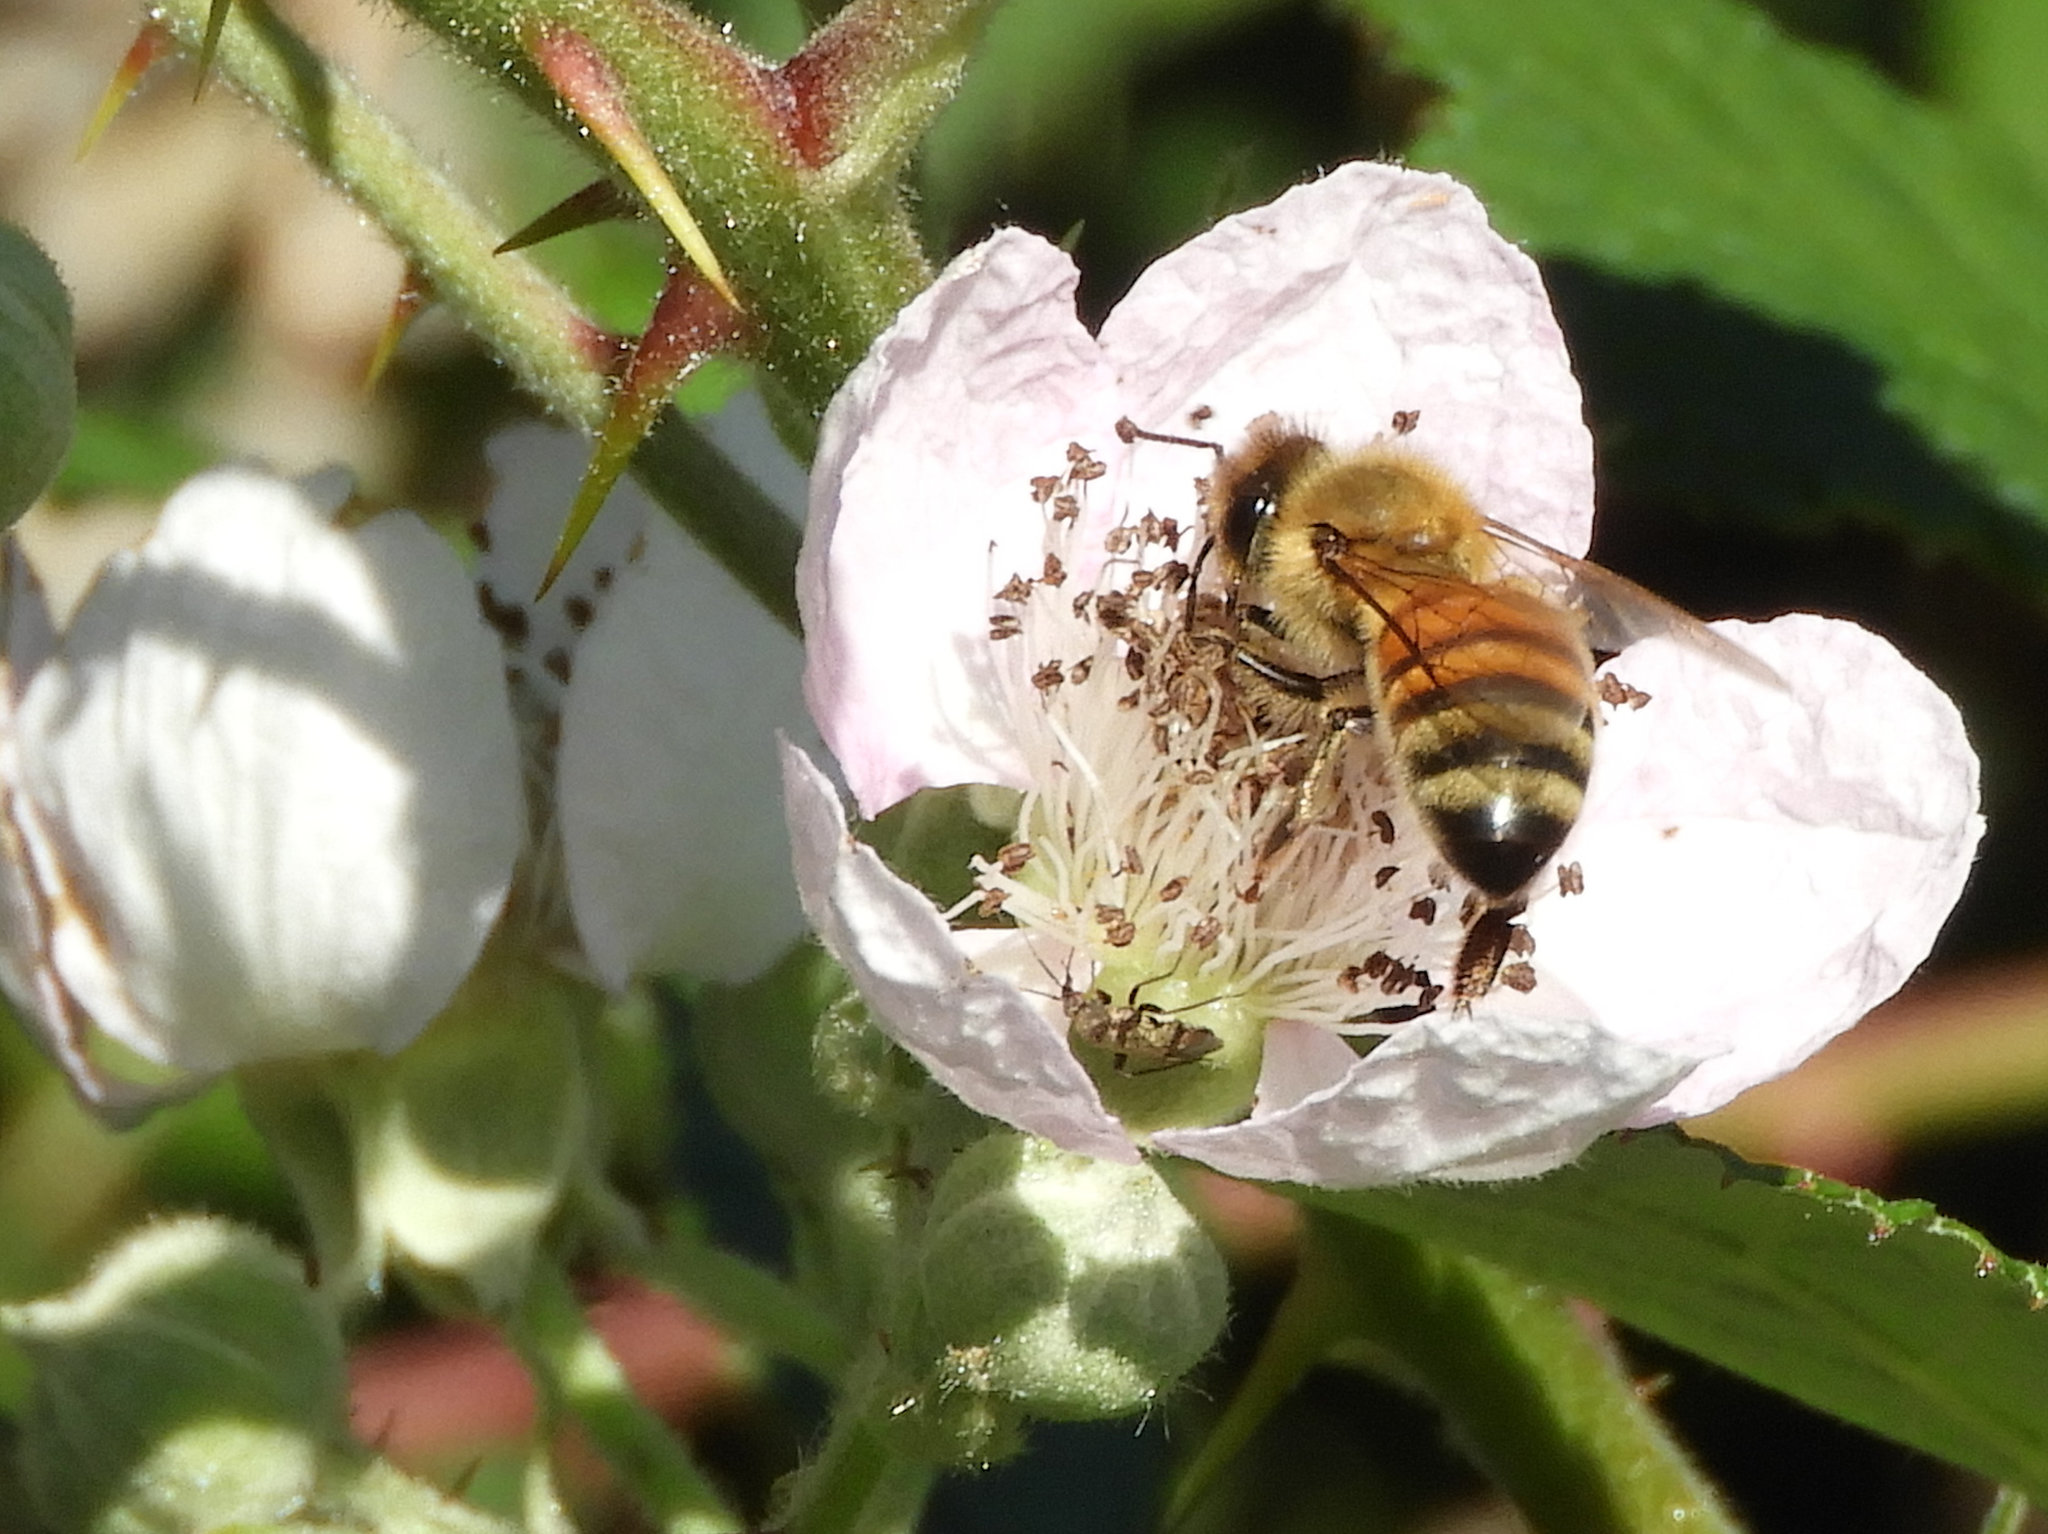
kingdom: Plantae
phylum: Tracheophyta
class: Magnoliopsida
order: Rosales
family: Rosaceae
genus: Rubus
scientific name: Rubus armeniacus
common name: Himalayan blackberry
